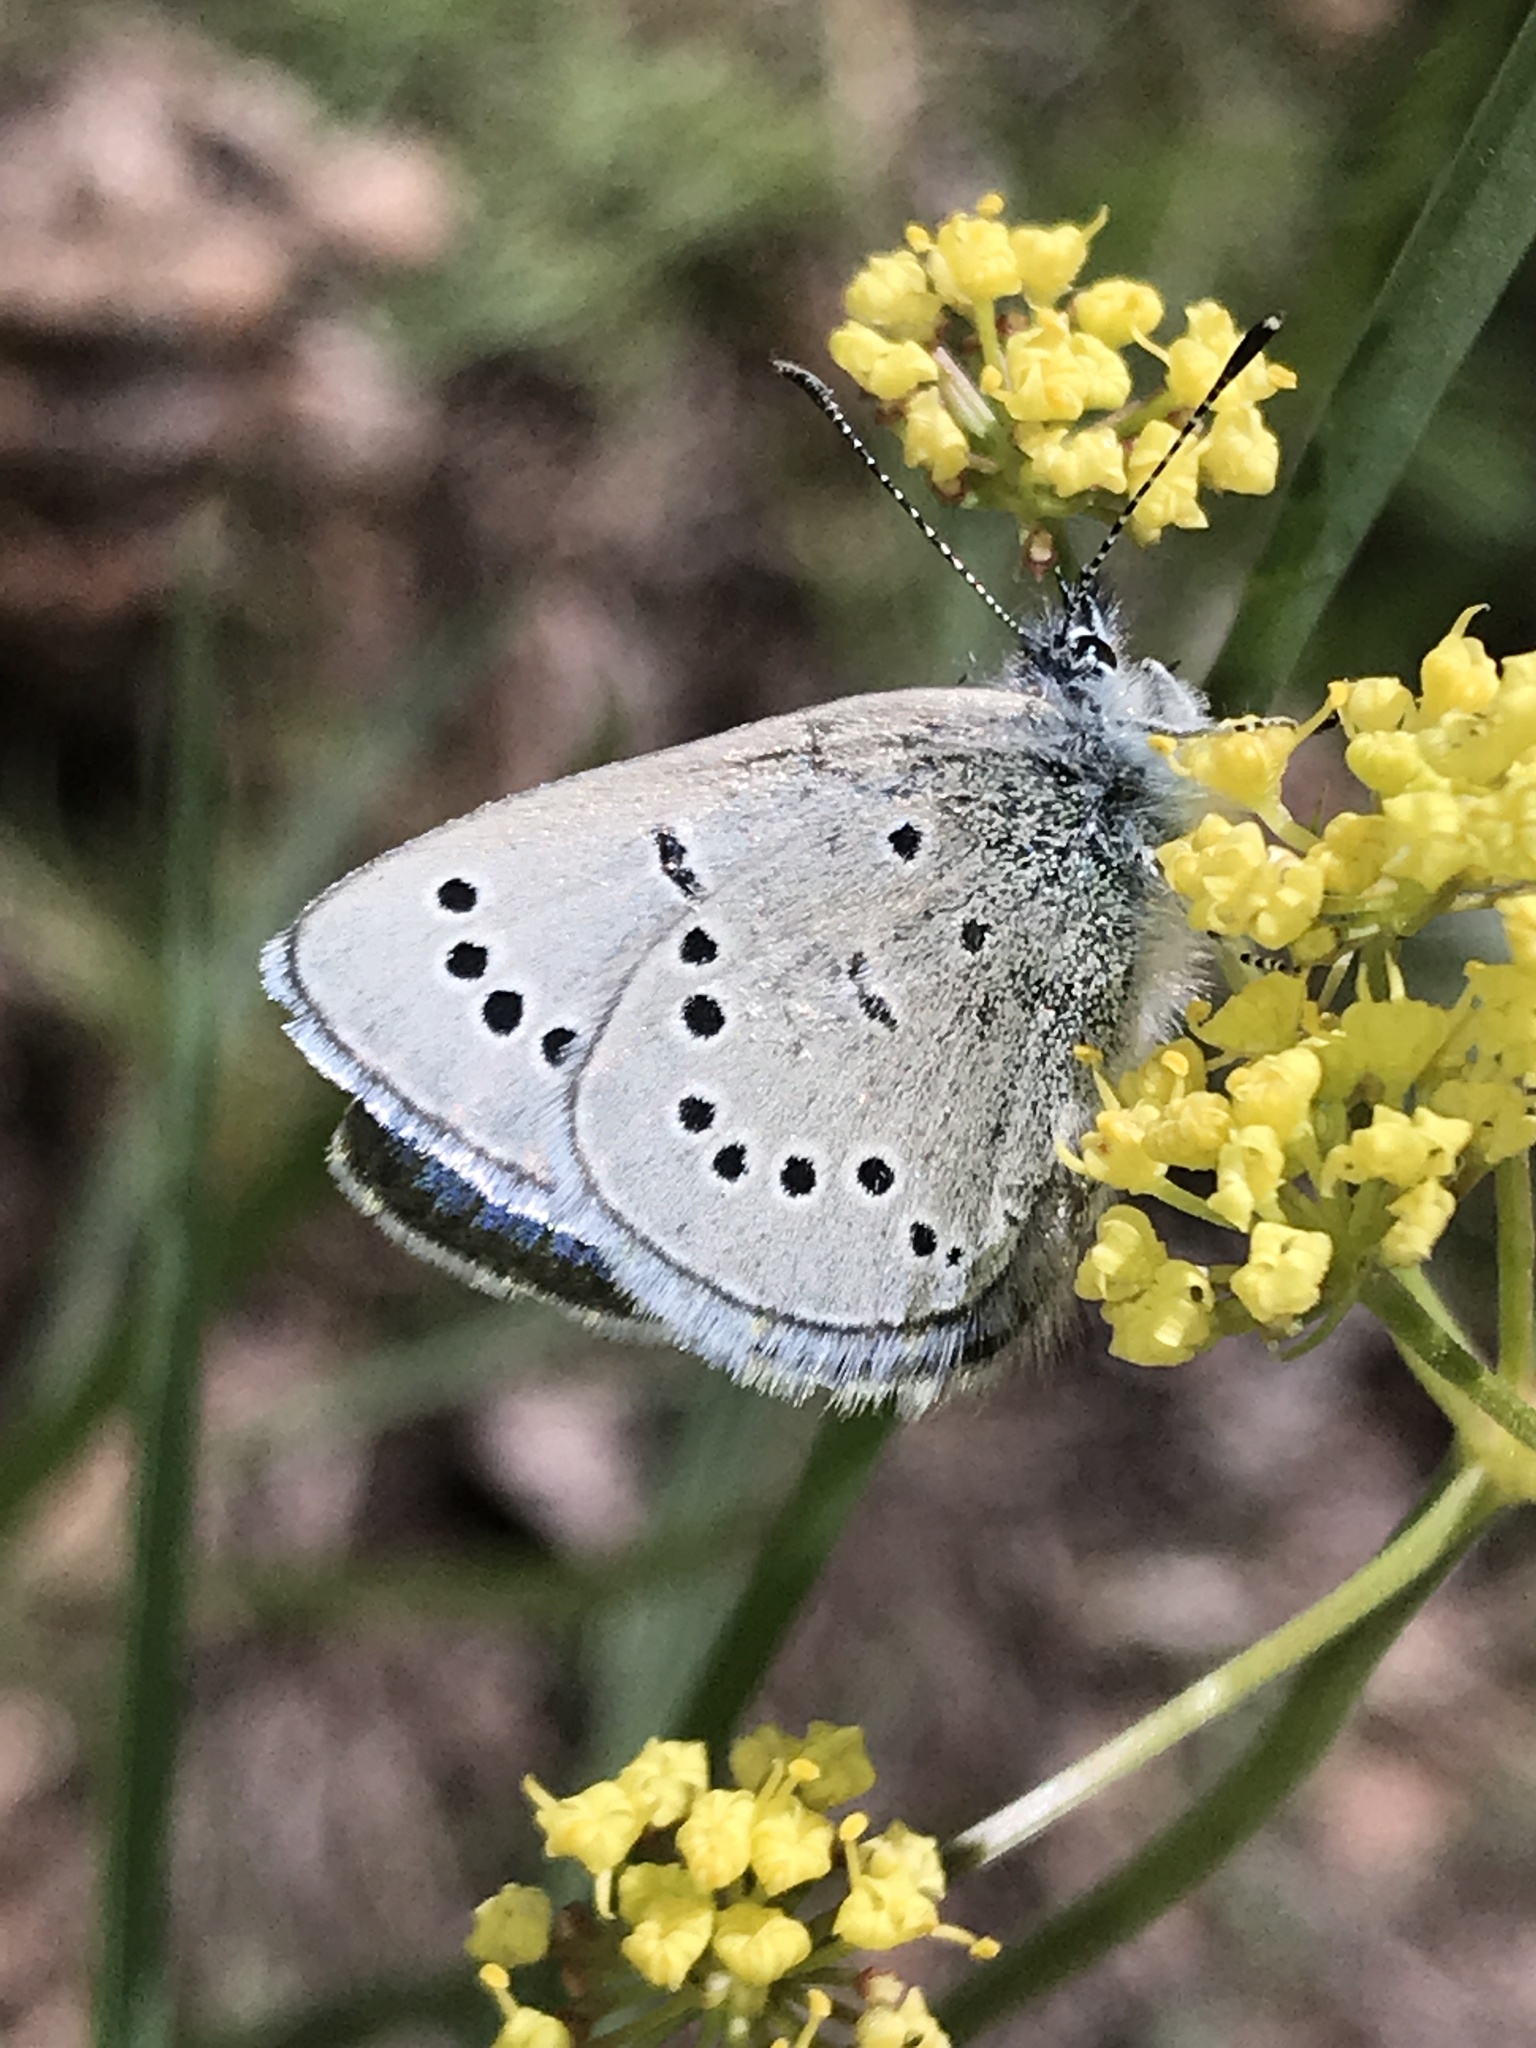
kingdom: Animalia
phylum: Arthropoda
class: Insecta
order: Lepidoptera
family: Lycaenidae
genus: Glaucopsyche
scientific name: Glaucopsyche lygdamus
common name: Silvery blue
